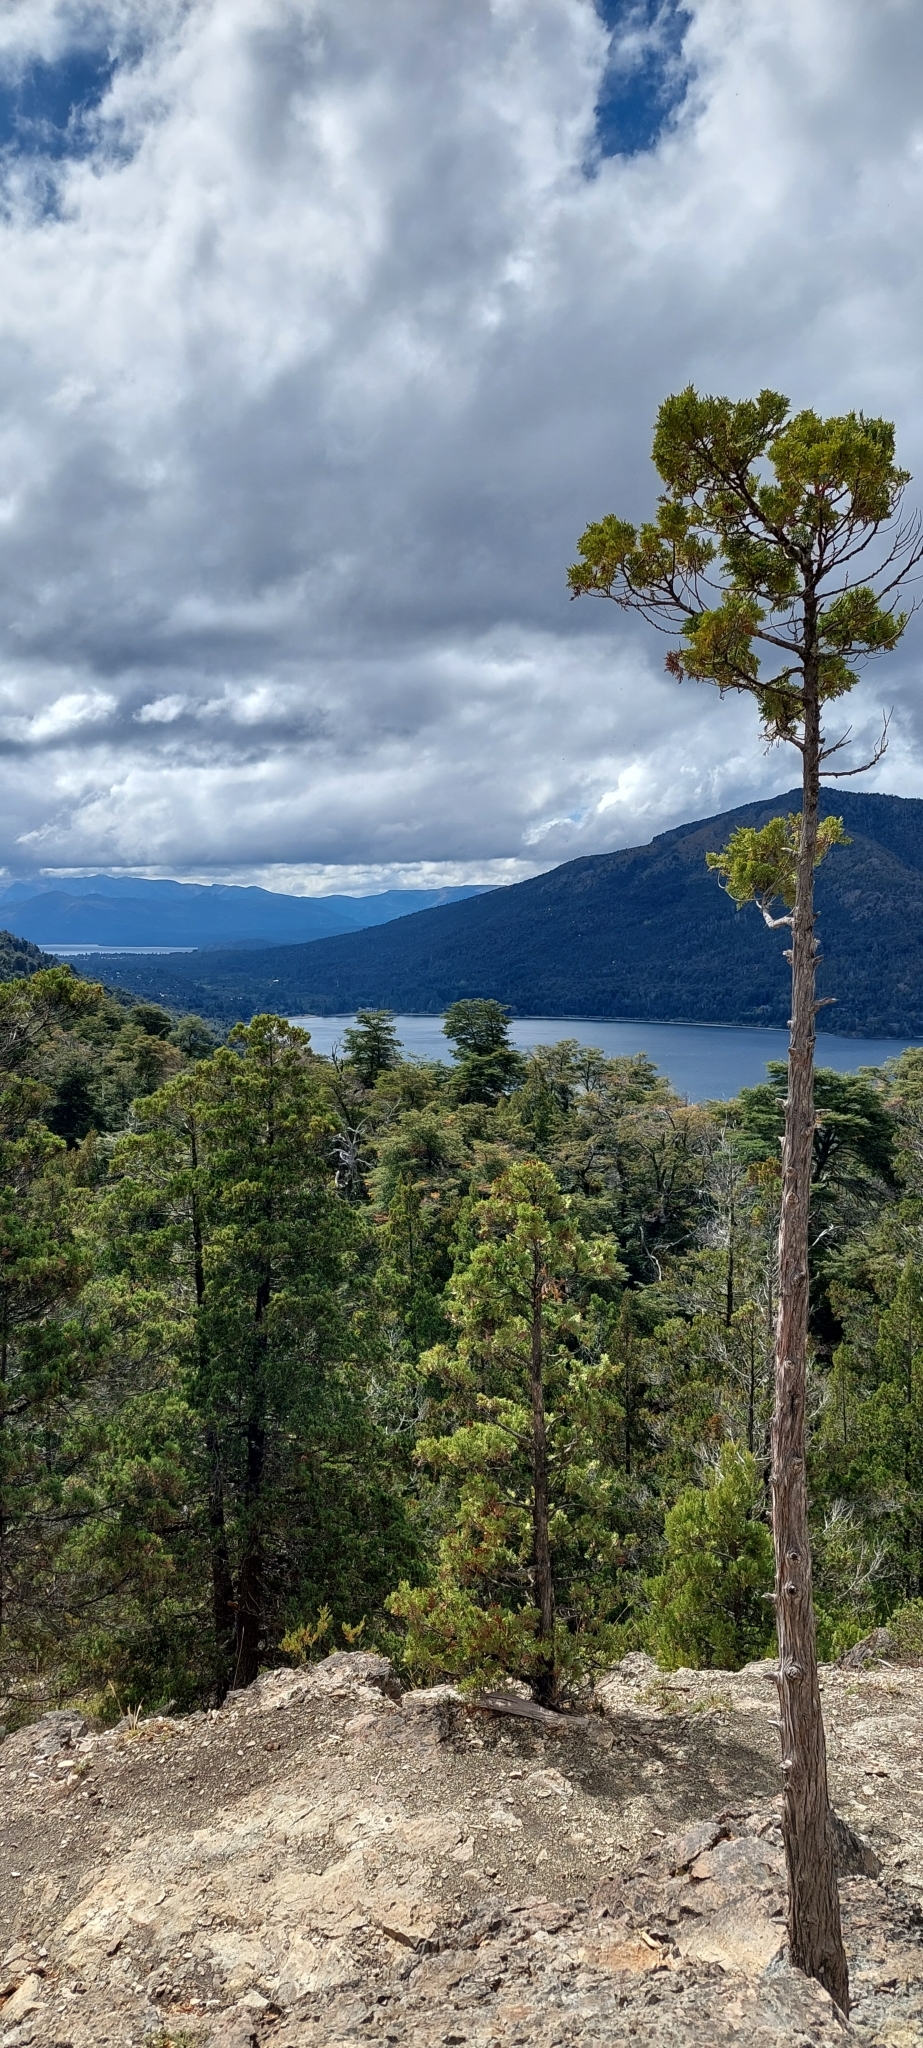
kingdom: Plantae
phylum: Tracheophyta
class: Pinopsida
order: Pinales
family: Cupressaceae
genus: Austrocedrus
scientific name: Austrocedrus chilensis
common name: Chilean incense-cedar
